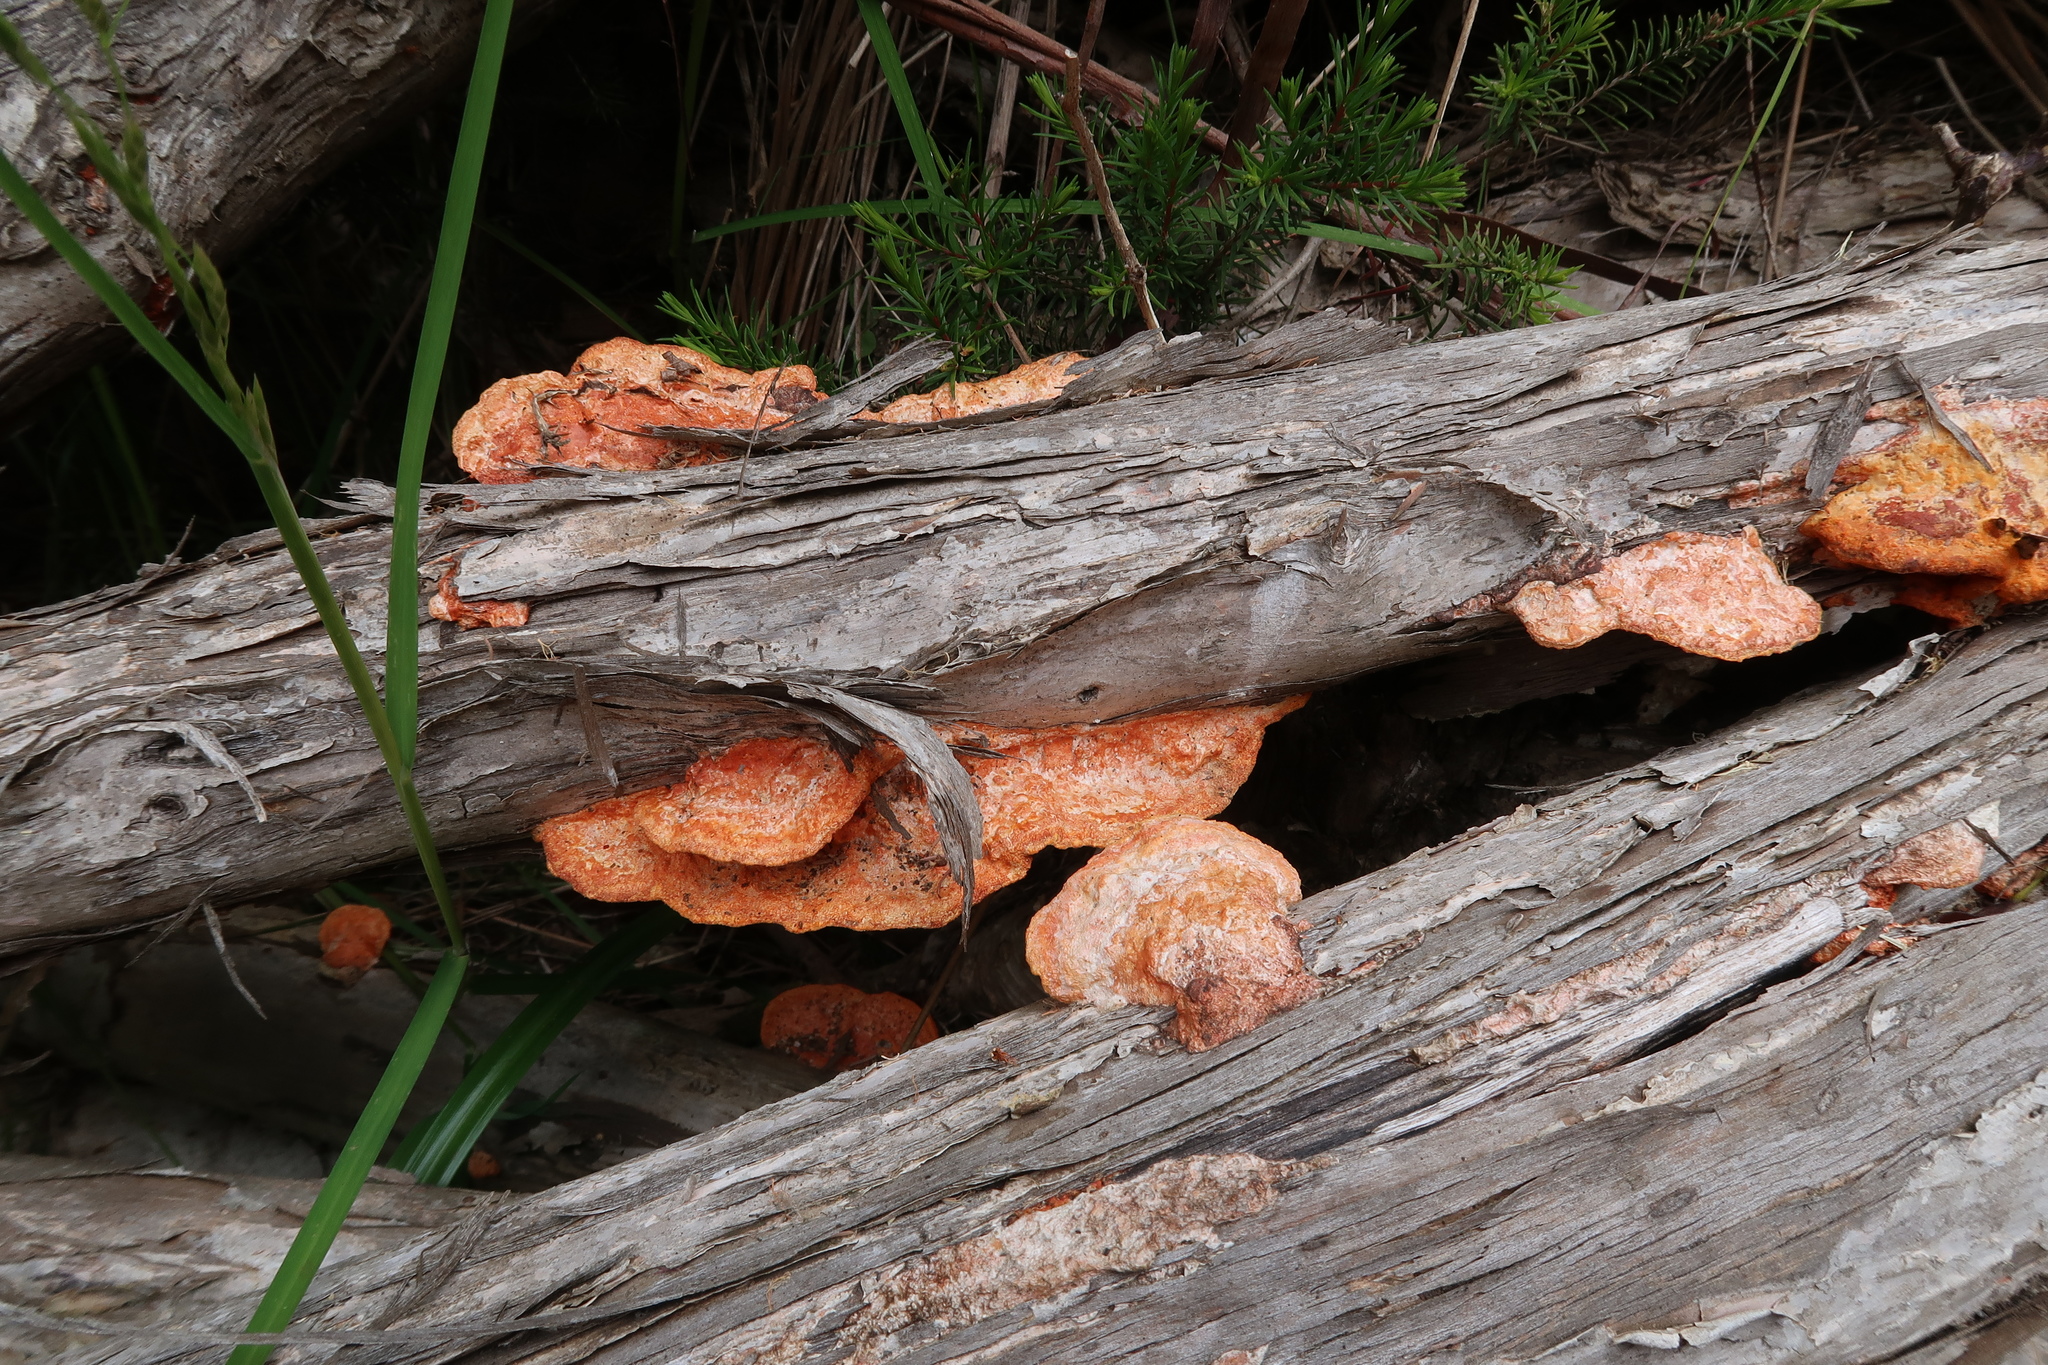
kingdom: Fungi
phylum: Basidiomycota
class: Agaricomycetes
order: Polyporales
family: Polyporaceae
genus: Trametes
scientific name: Trametes coccinea
